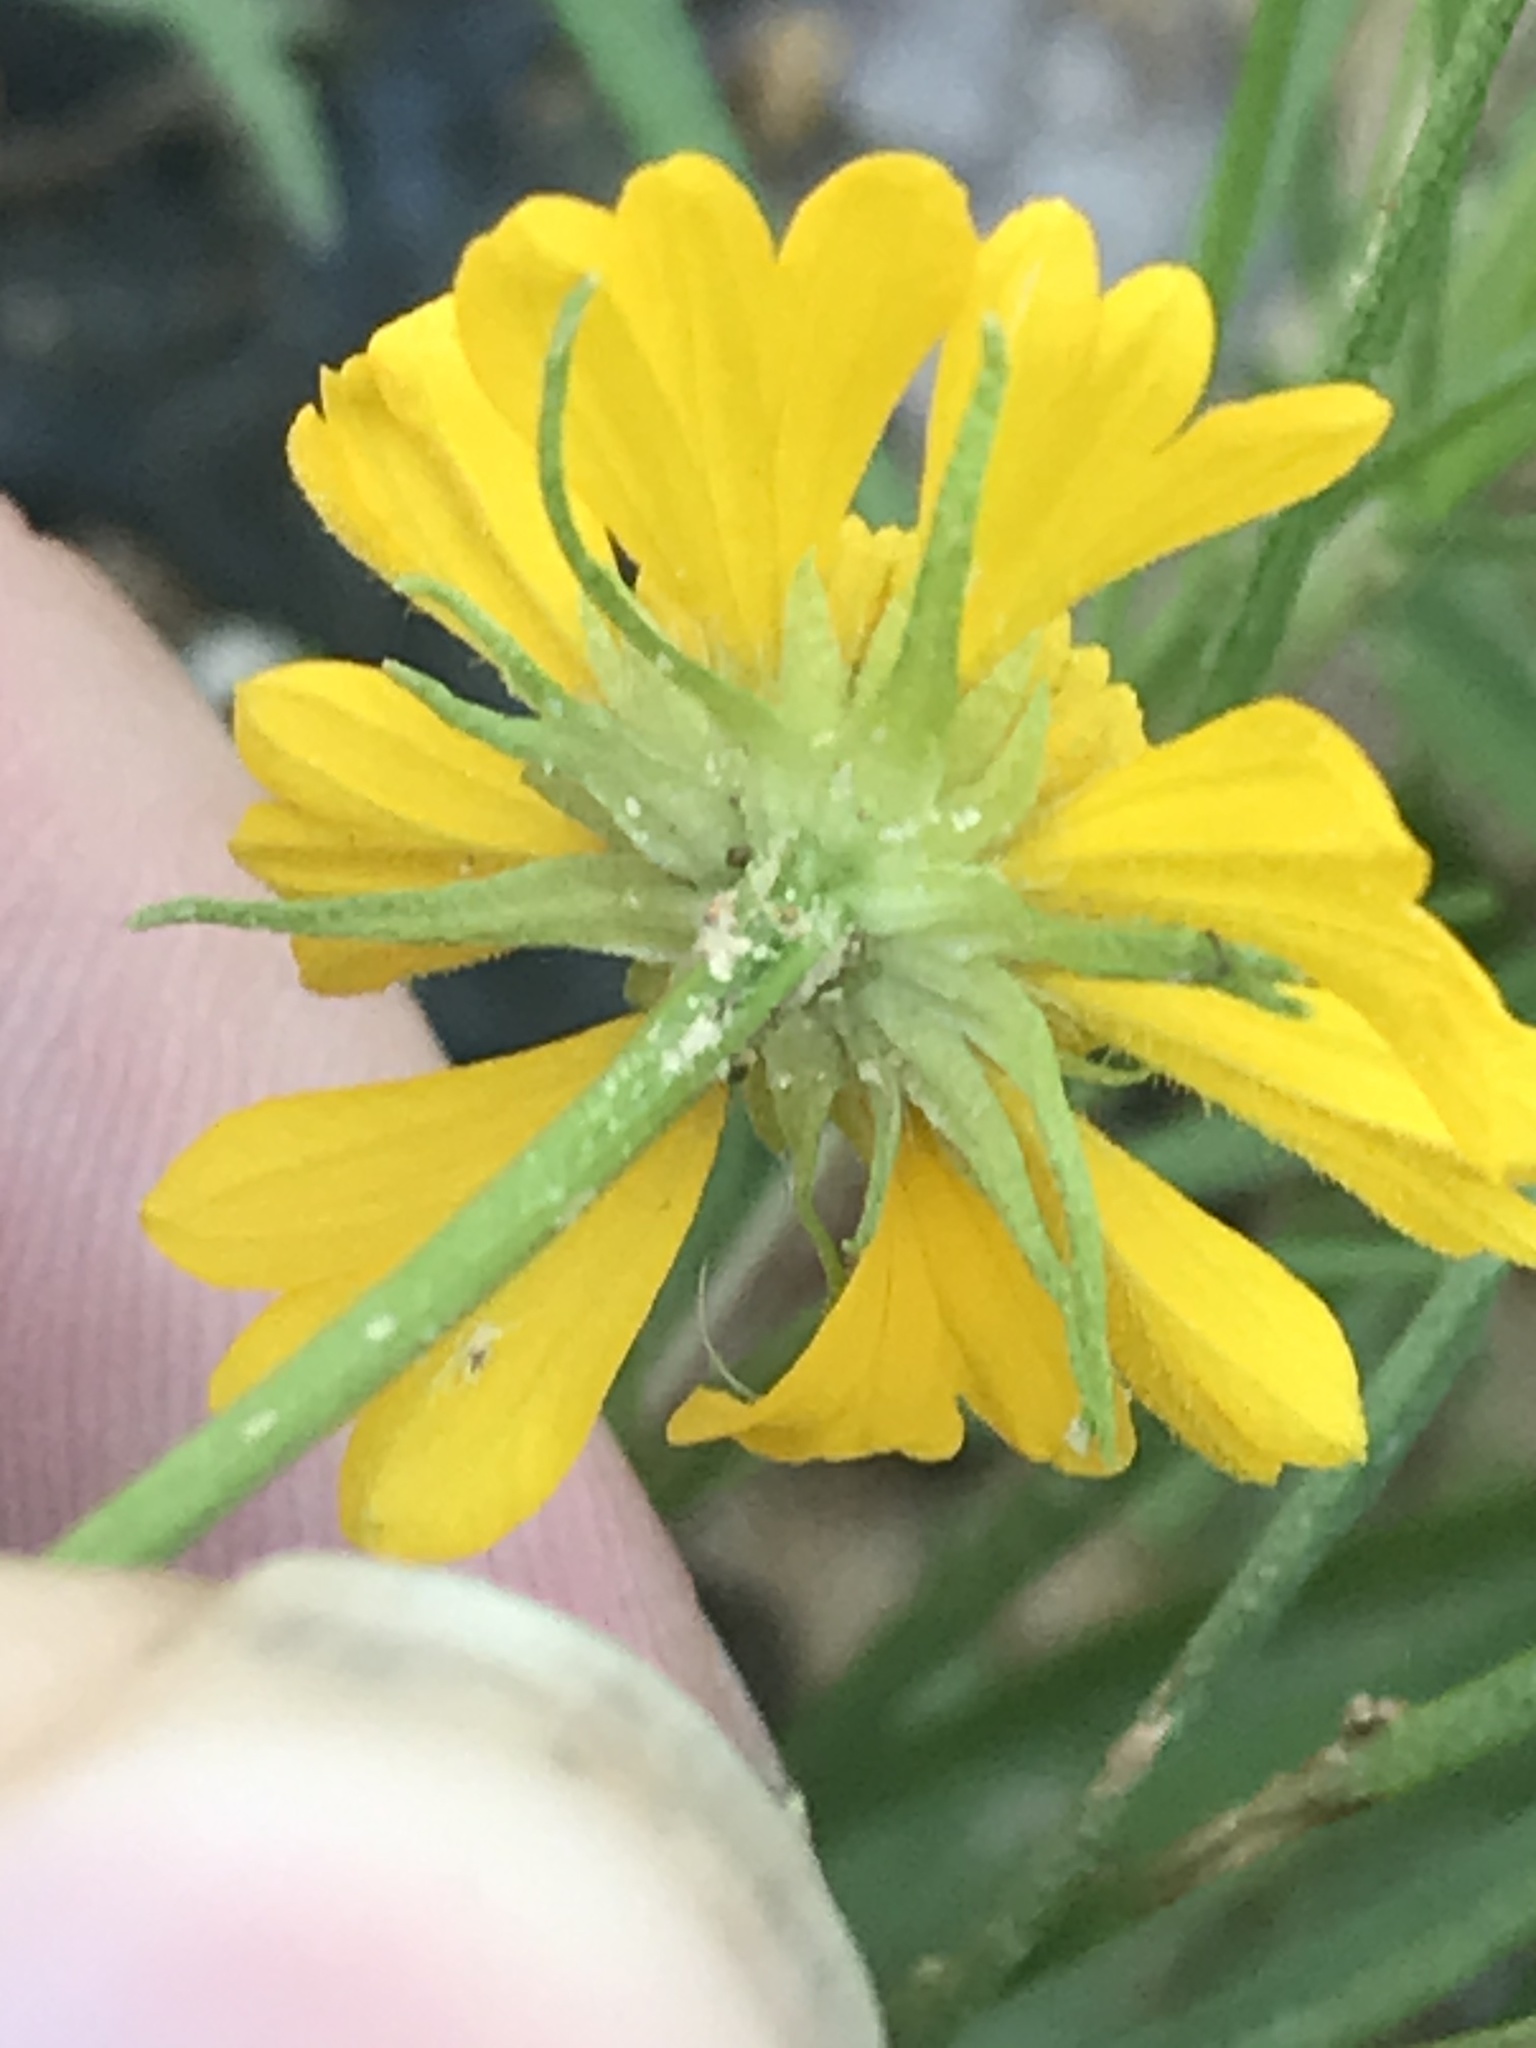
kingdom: Plantae
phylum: Tracheophyta
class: Magnoliopsida
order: Asterales
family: Asteraceae
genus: Helenium
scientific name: Helenium amarum
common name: Bitter sneezeweed
